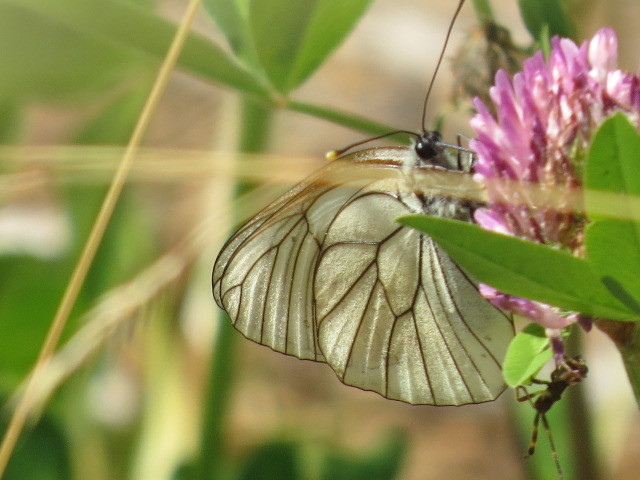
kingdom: Animalia
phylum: Arthropoda
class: Insecta
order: Lepidoptera
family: Pieridae
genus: Aporia
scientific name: Aporia crataegi
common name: Black-veined white
